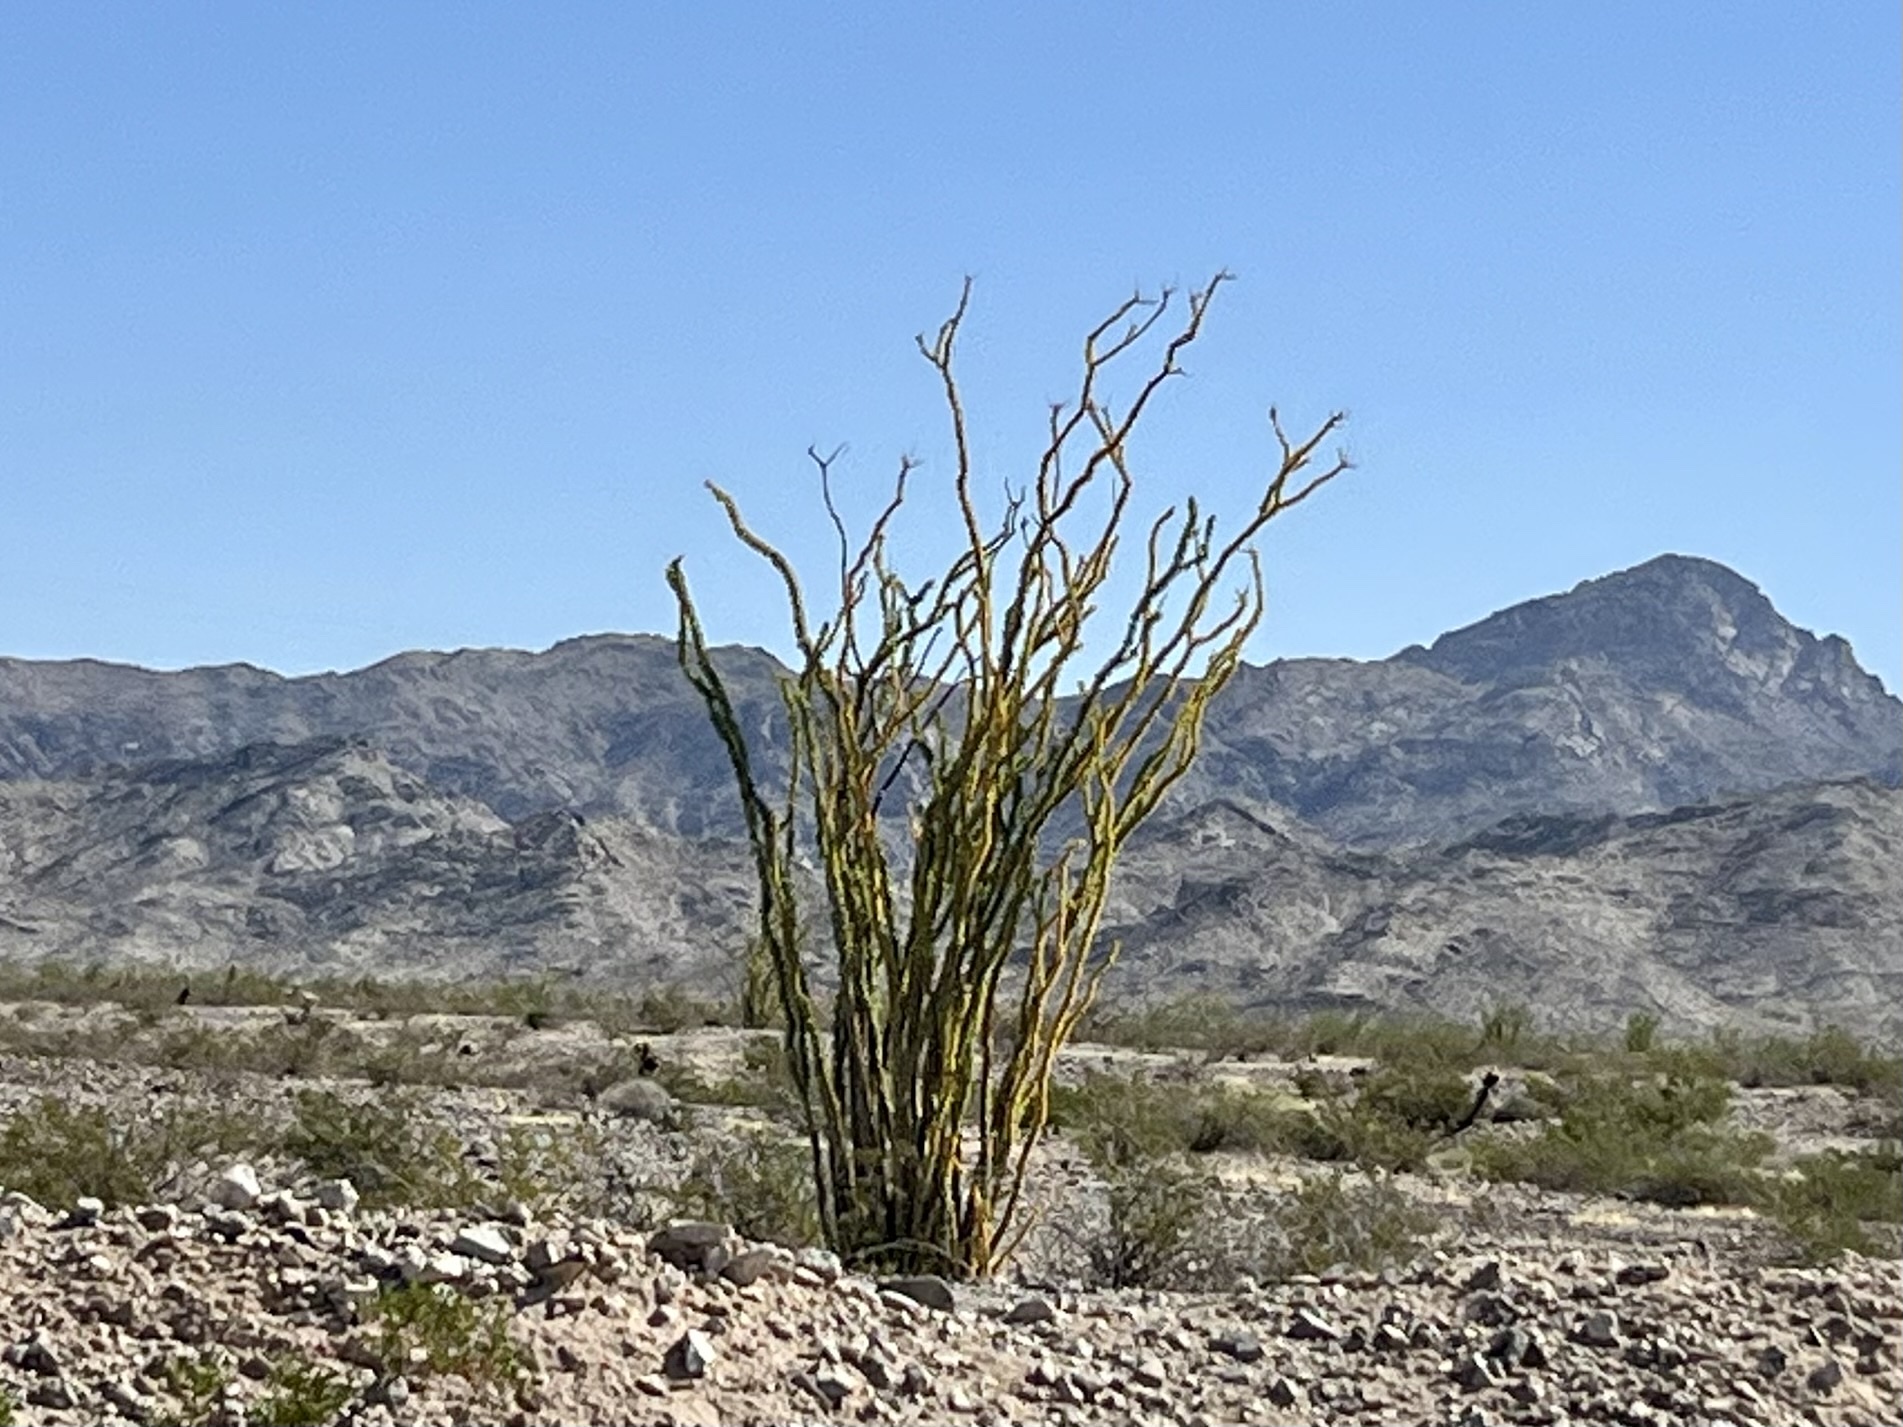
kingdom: Plantae
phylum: Tracheophyta
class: Magnoliopsida
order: Ericales
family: Fouquieriaceae
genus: Fouquieria
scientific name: Fouquieria splendens
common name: Vine-cactus
